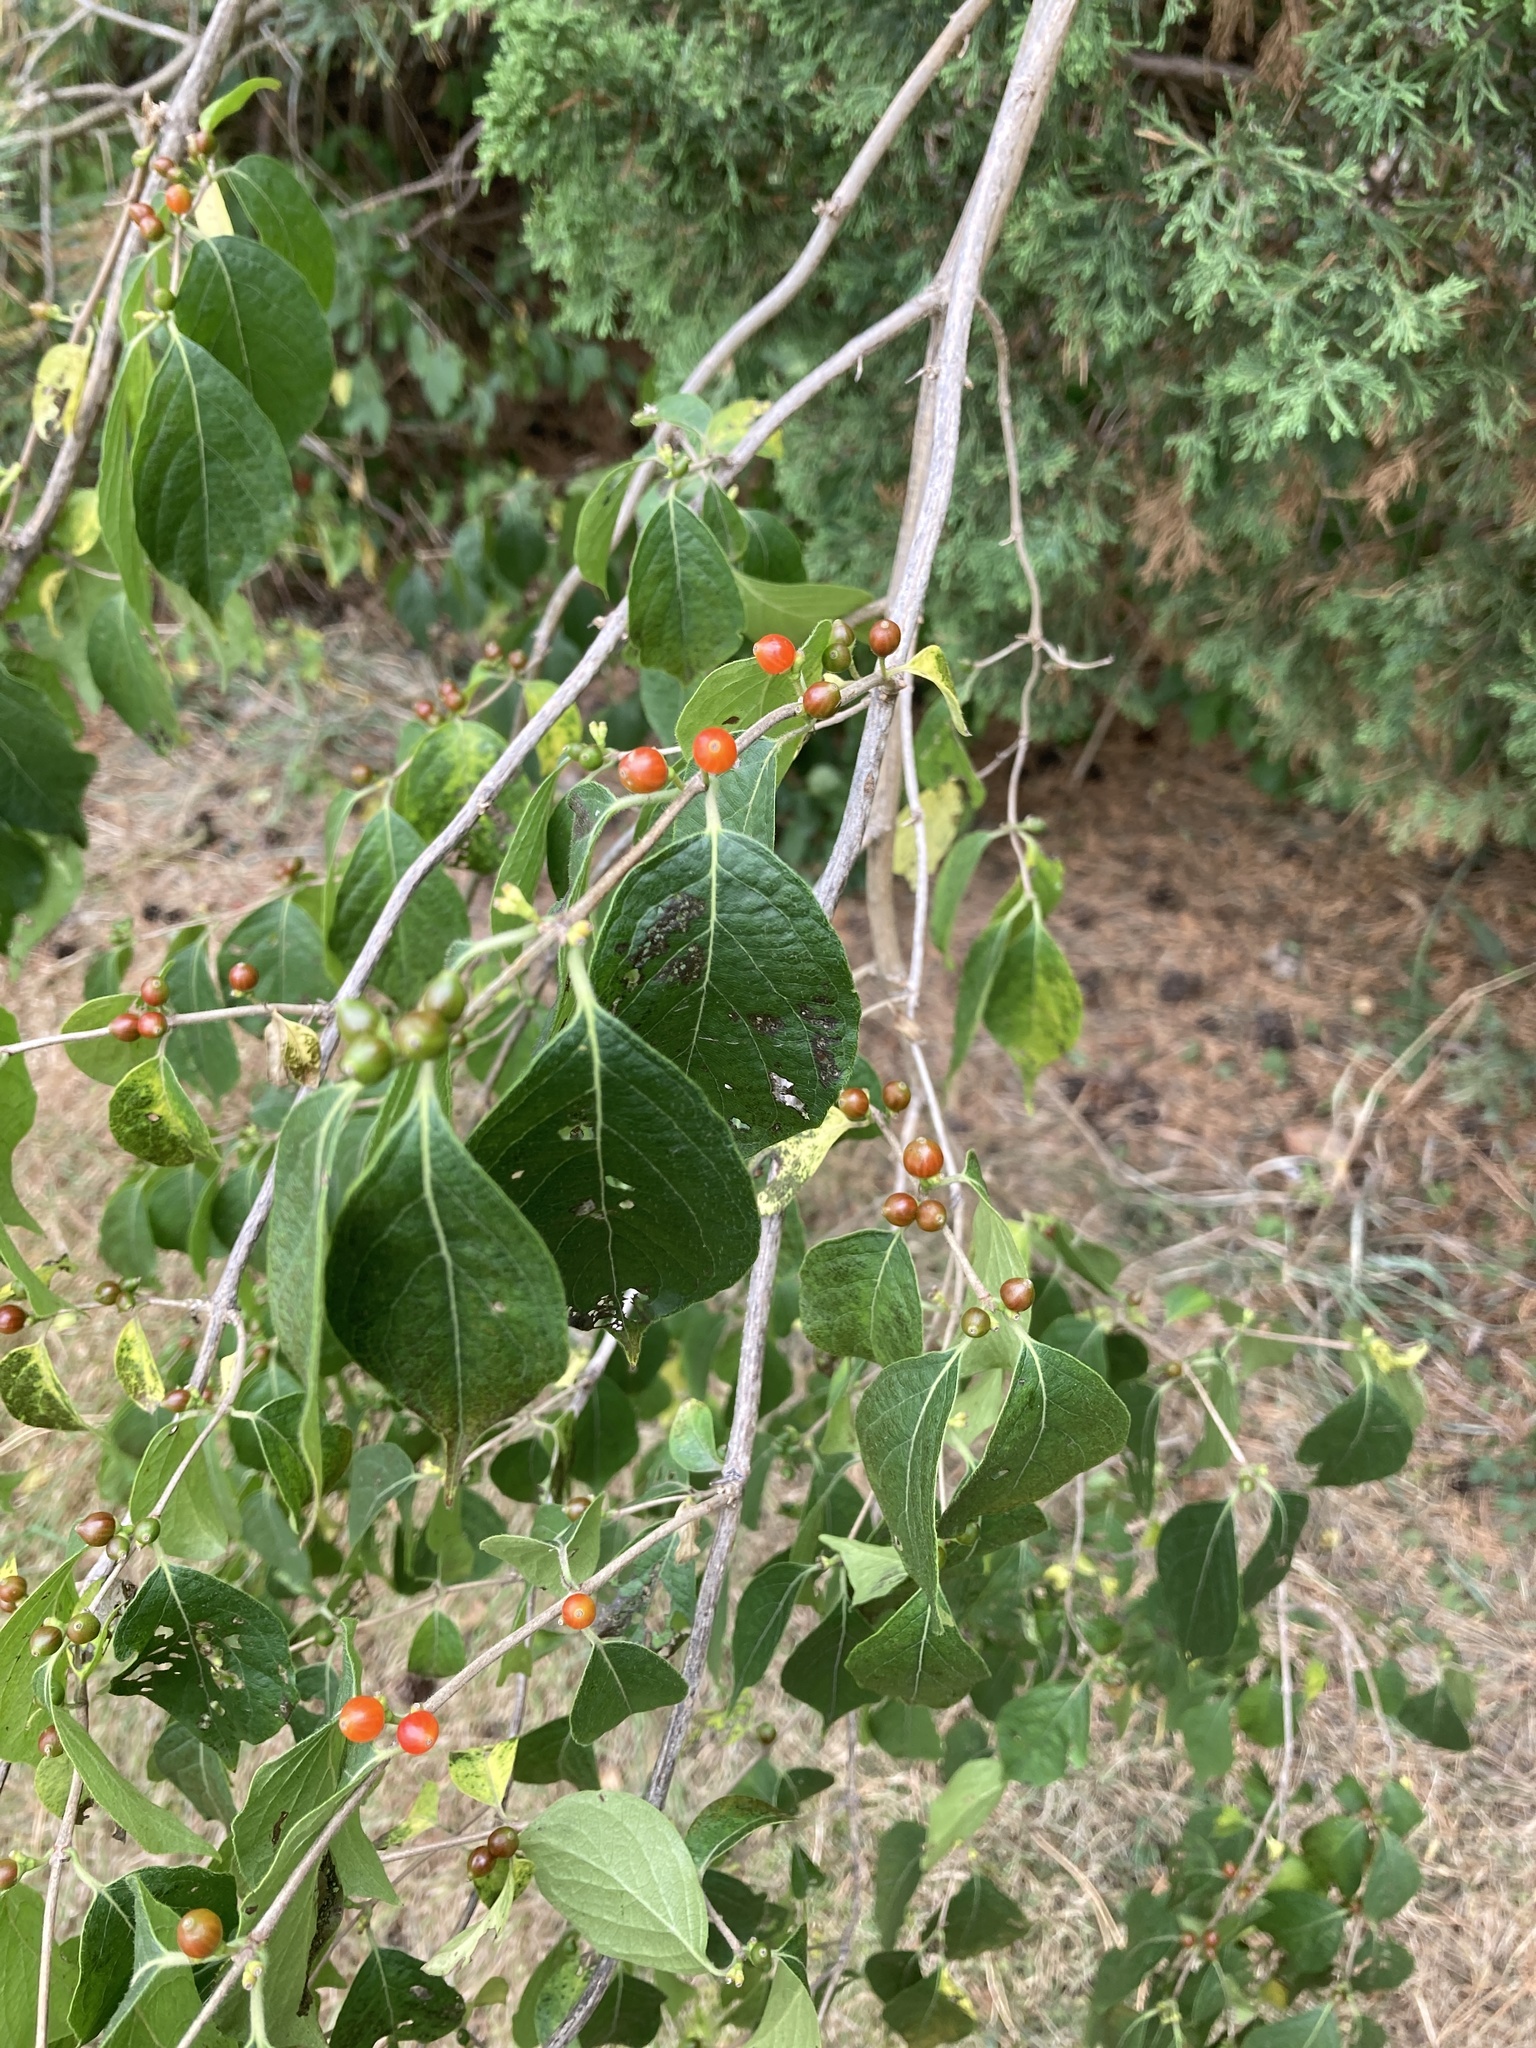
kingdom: Plantae
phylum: Tracheophyta
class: Magnoliopsida
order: Dipsacales
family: Caprifoliaceae
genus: Lonicera
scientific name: Lonicera maackii
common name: Amur honeysuckle
